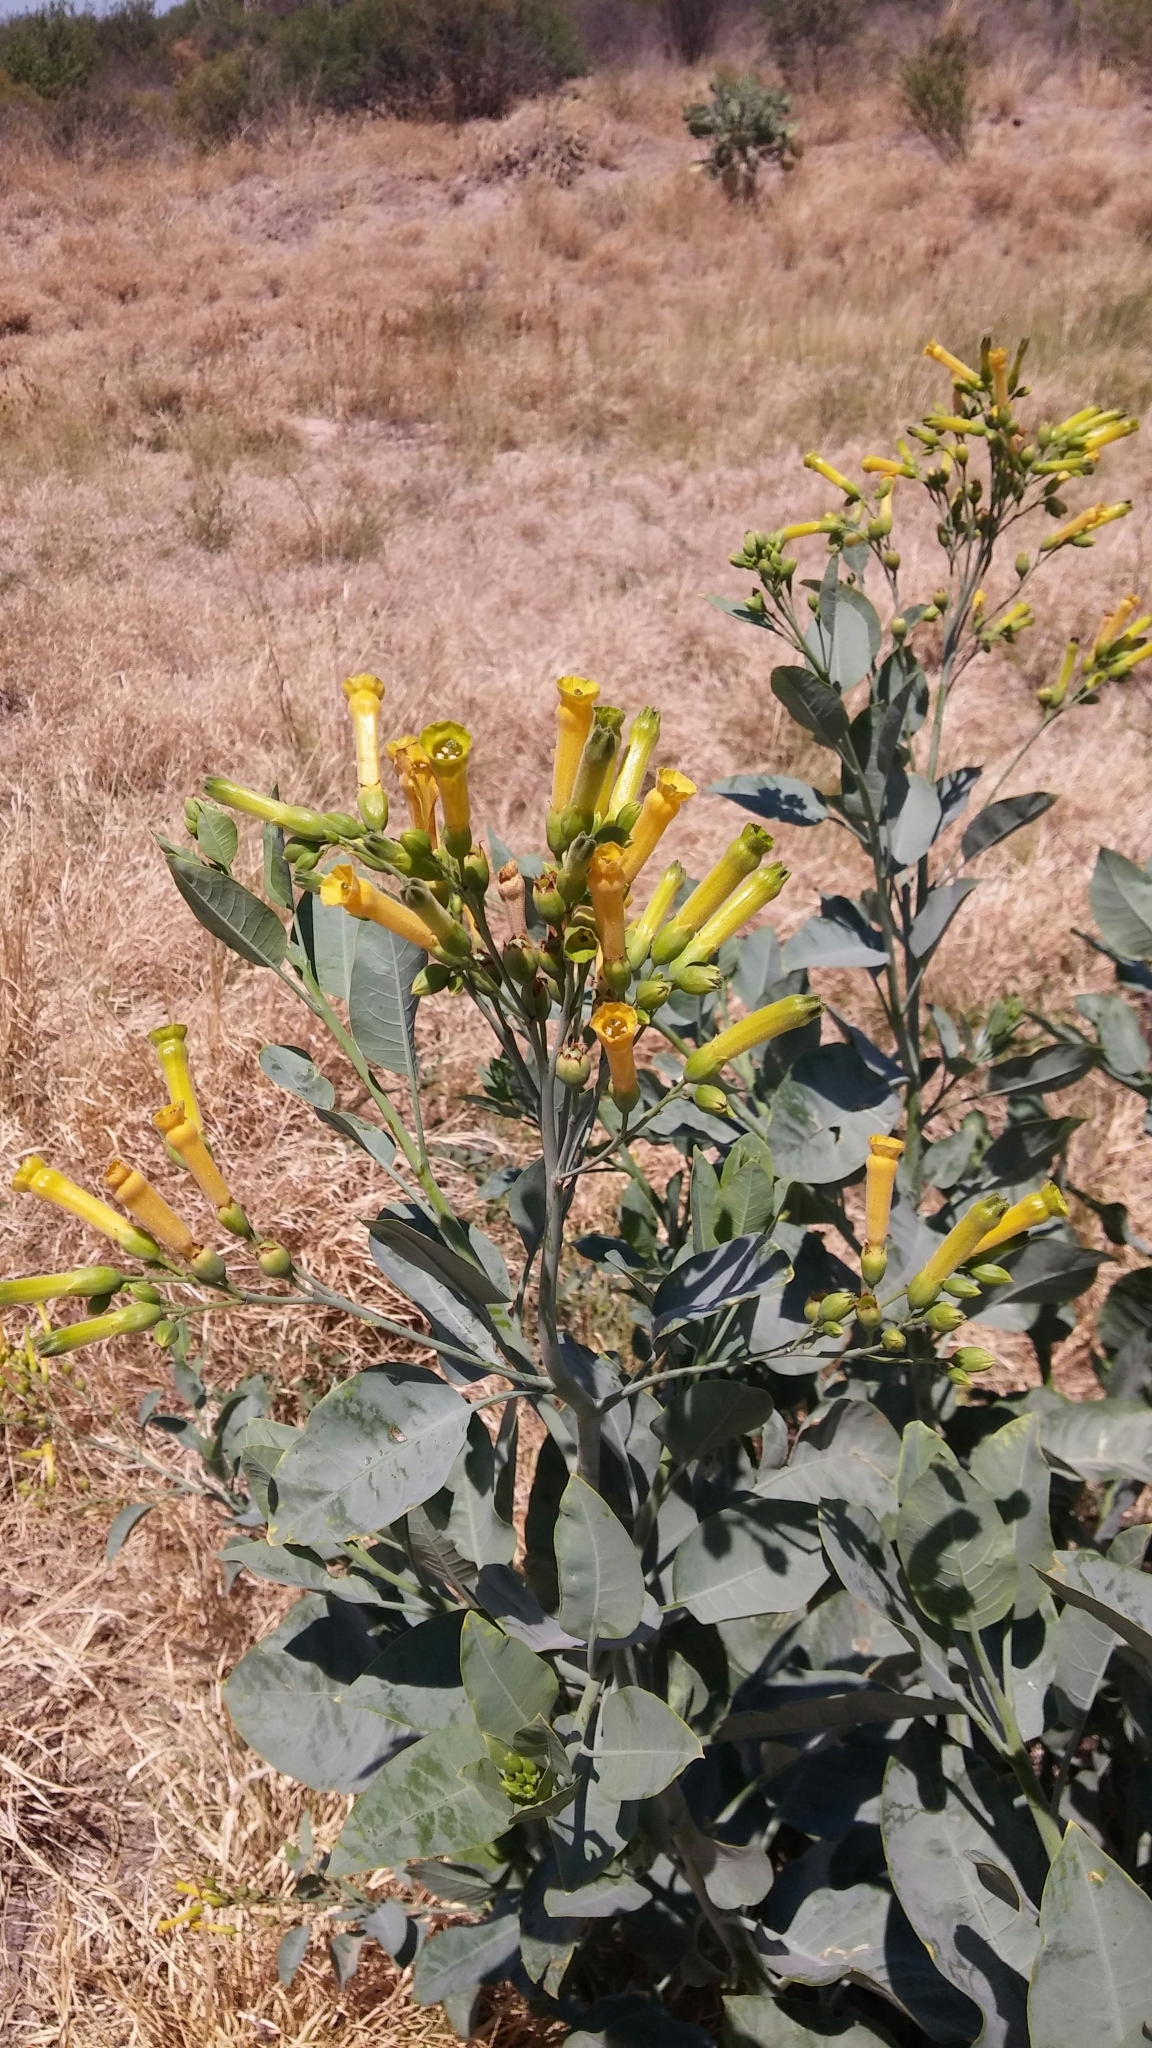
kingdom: Plantae
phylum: Tracheophyta
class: Magnoliopsida
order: Solanales
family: Solanaceae
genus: Nicotiana
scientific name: Nicotiana glauca
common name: Tree tobacco
